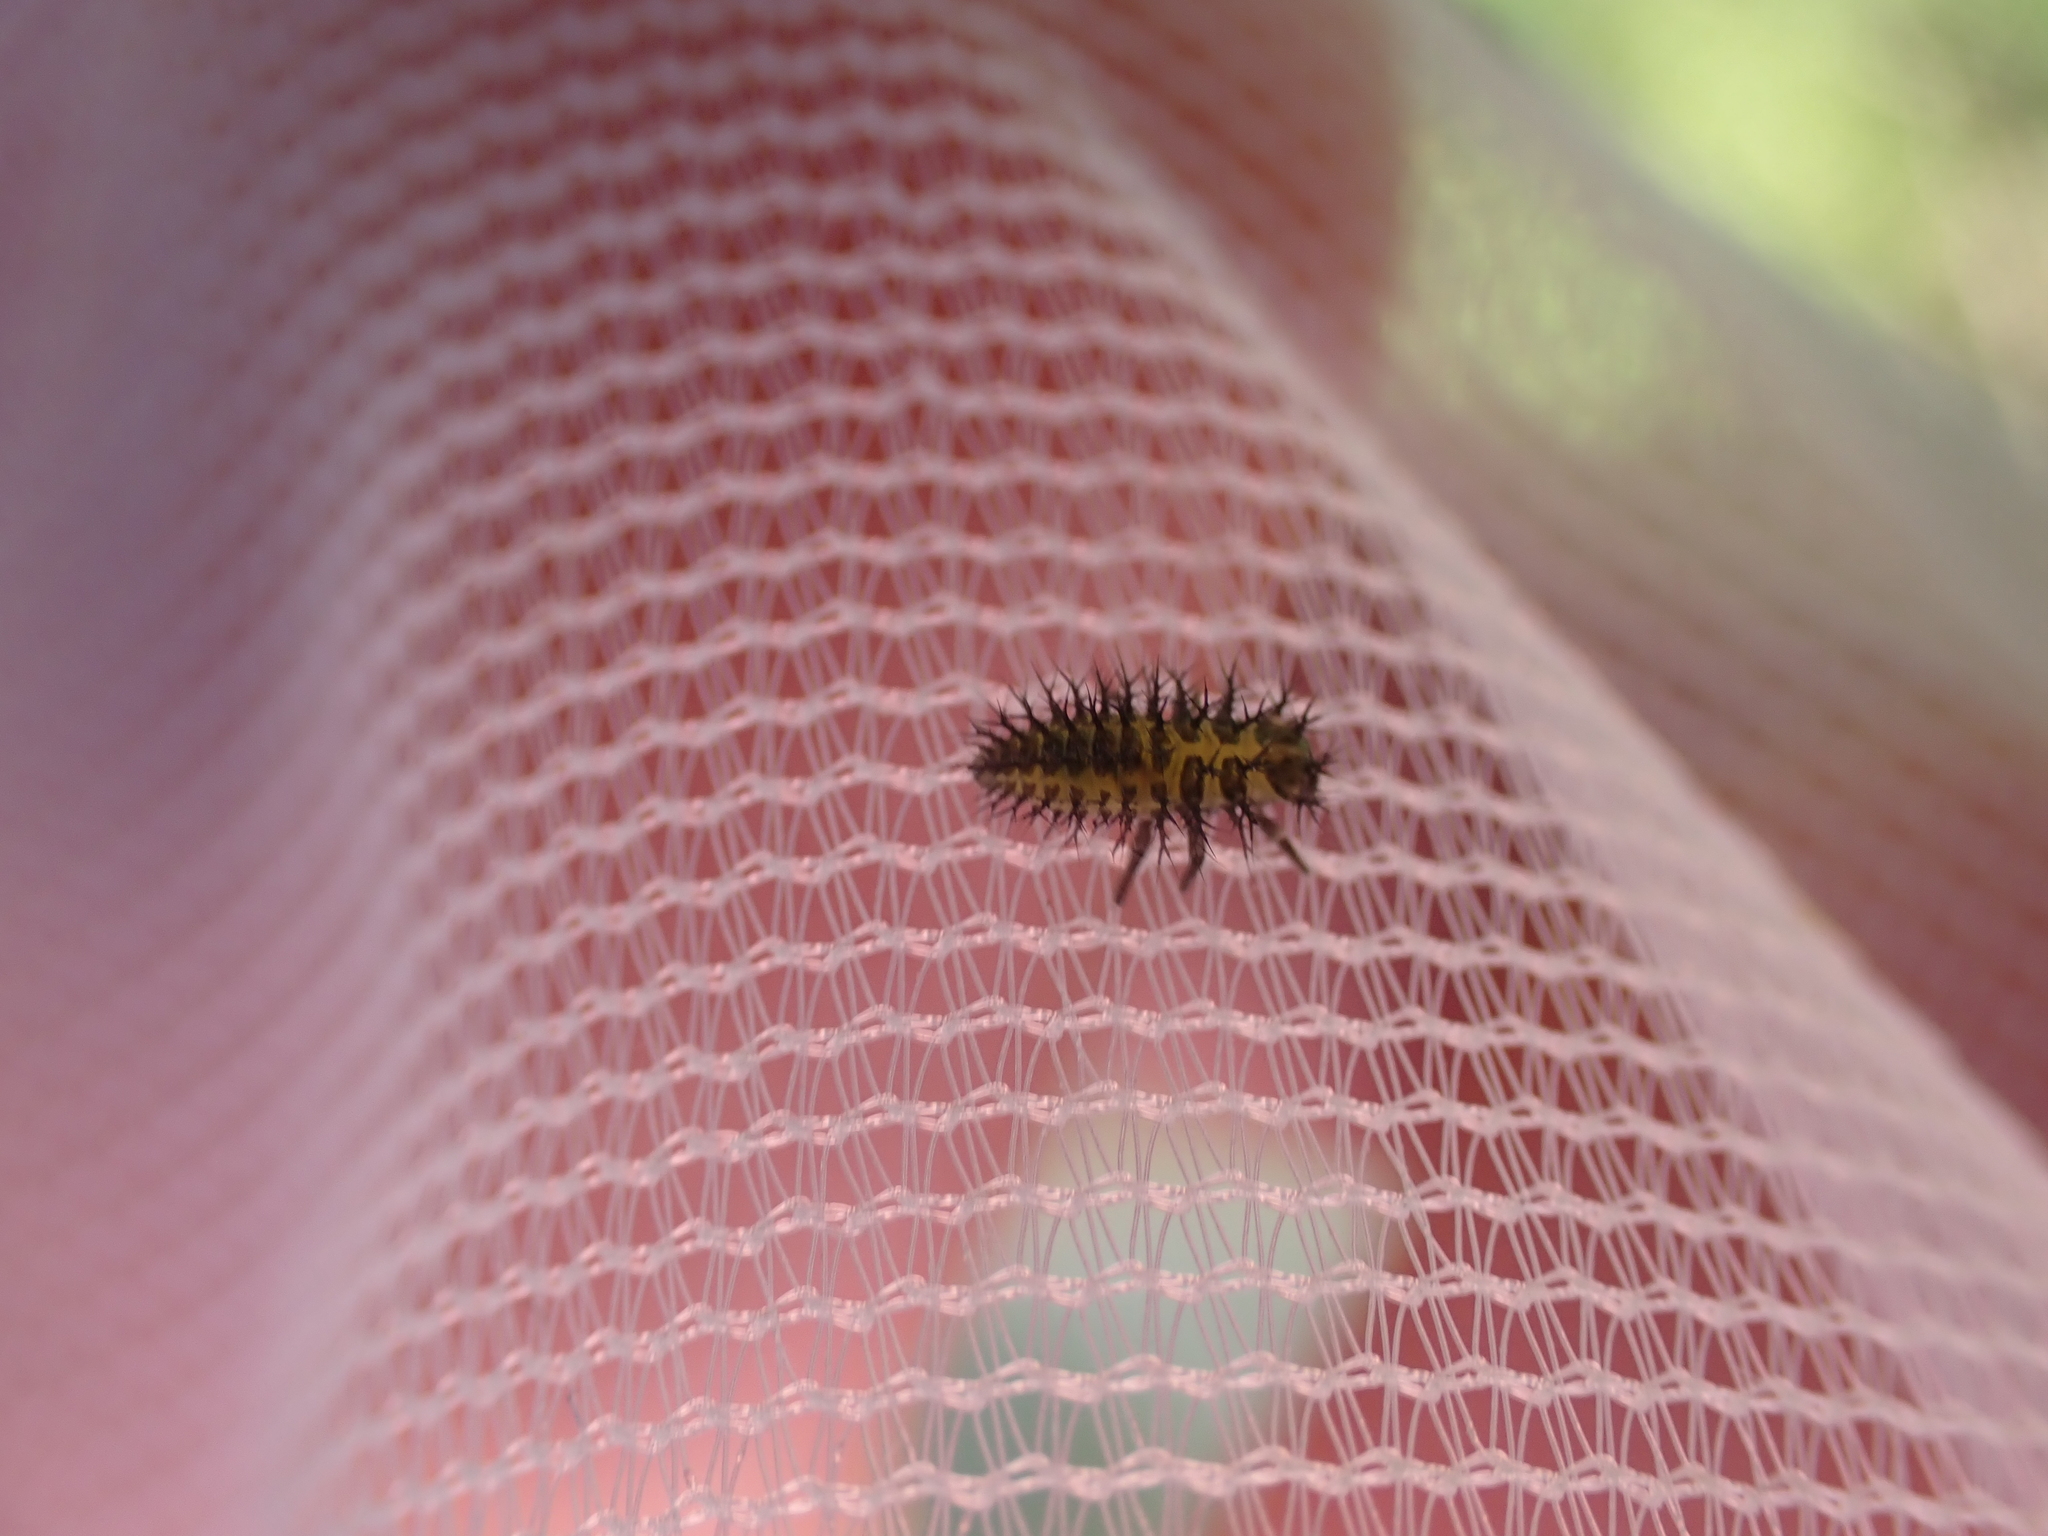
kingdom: Animalia
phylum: Arthropoda
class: Insecta
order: Coleoptera
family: Coccinellidae
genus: Henosepilachna
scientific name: Henosepilachna argus
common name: Bryony ladybird
